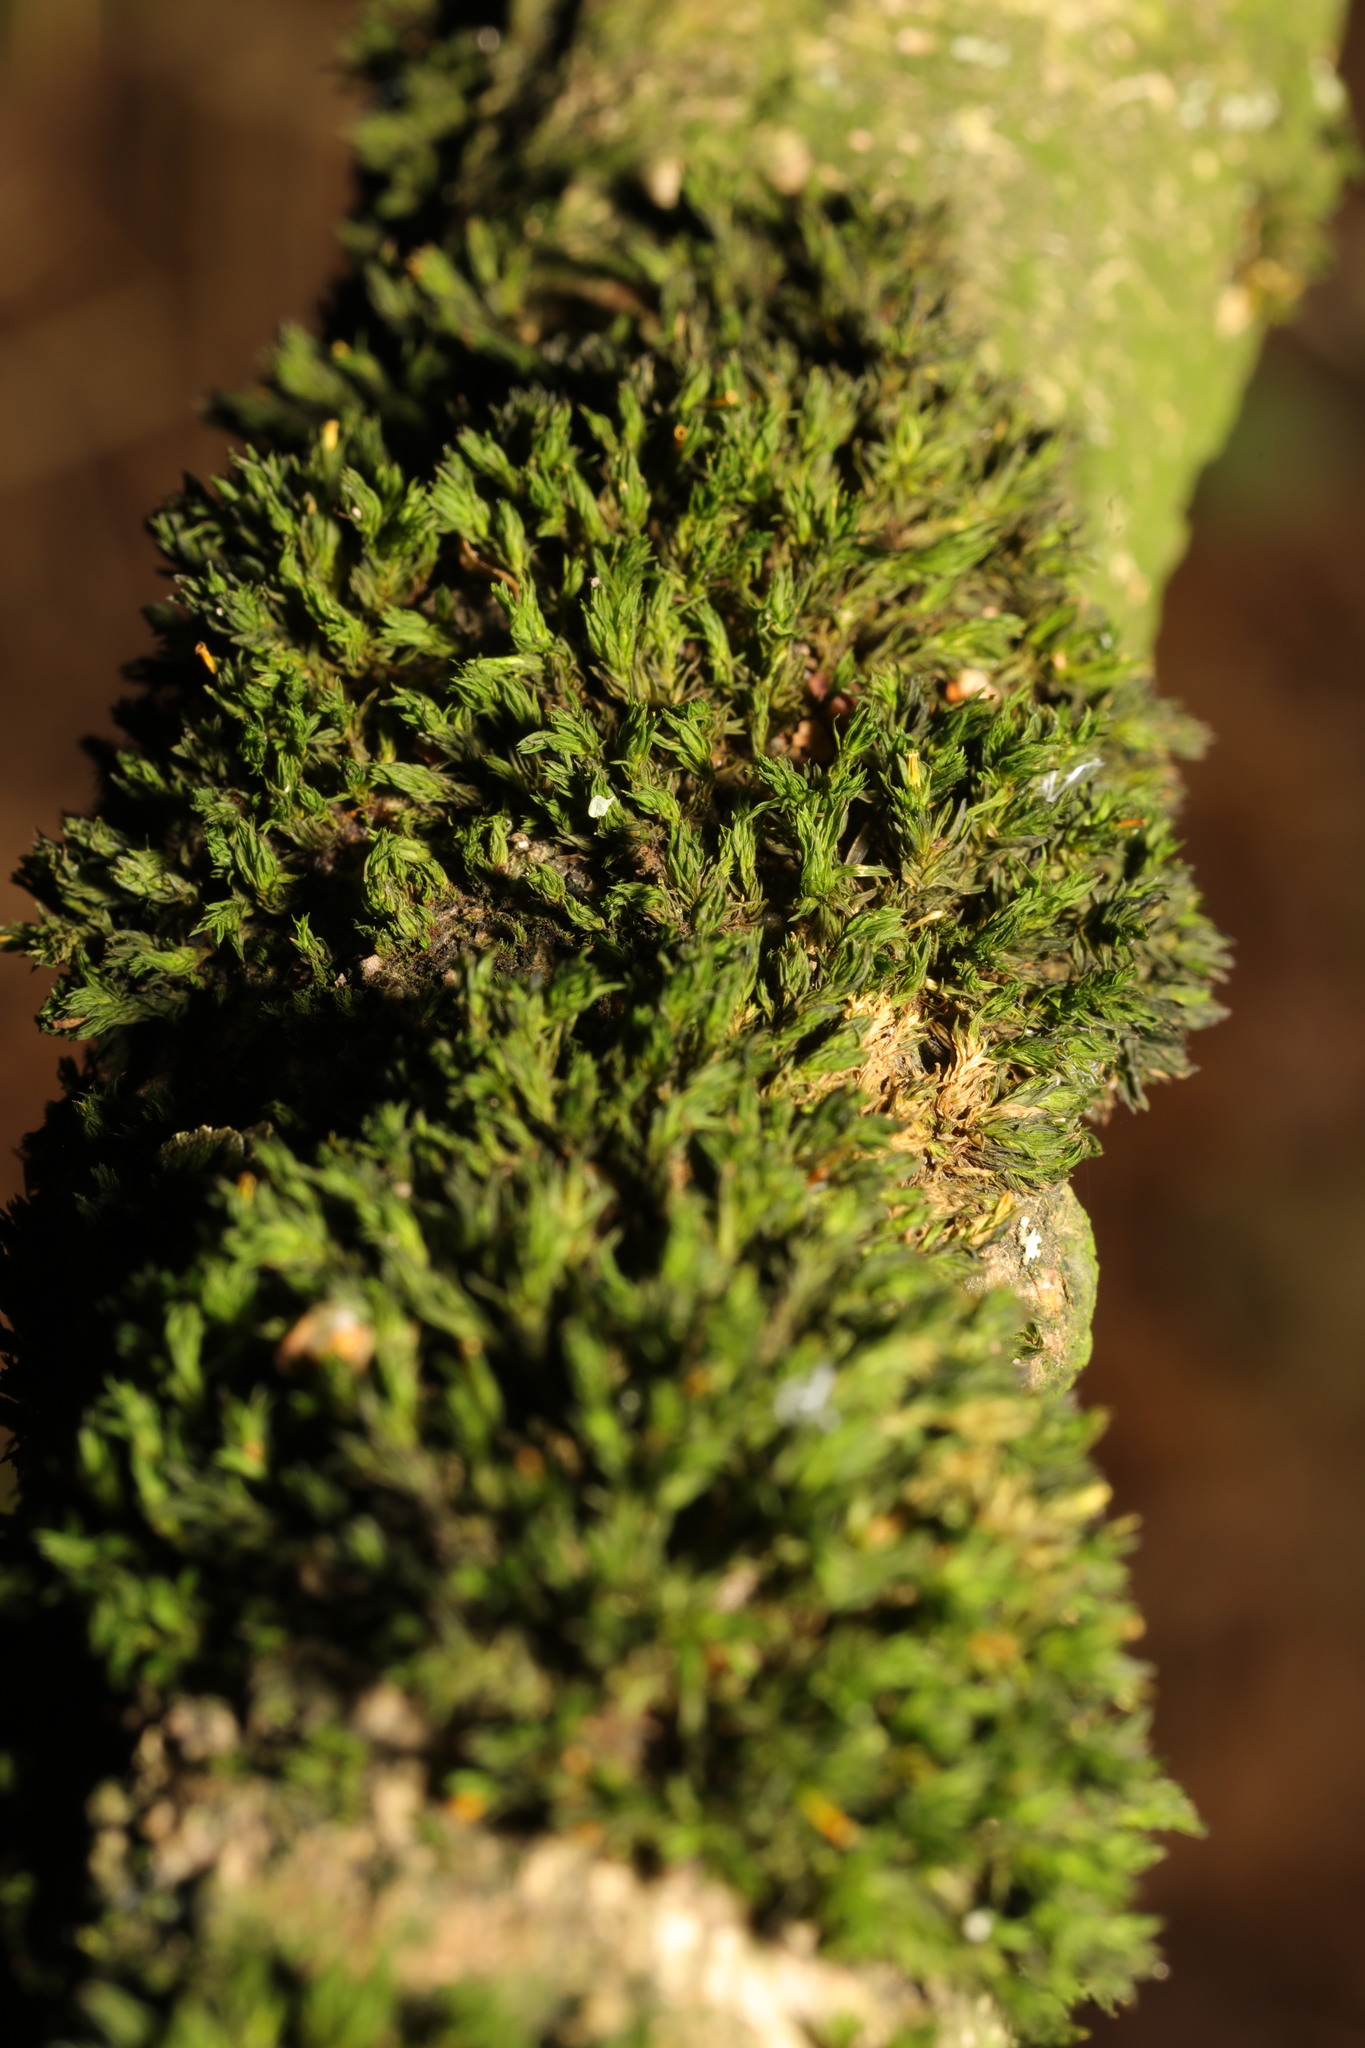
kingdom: Plantae
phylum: Bryophyta
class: Bryopsida
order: Orthotrichales
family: Orthotrichaceae
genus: Lewinskya
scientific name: Lewinskya affinis
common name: Wood bristle-moss
